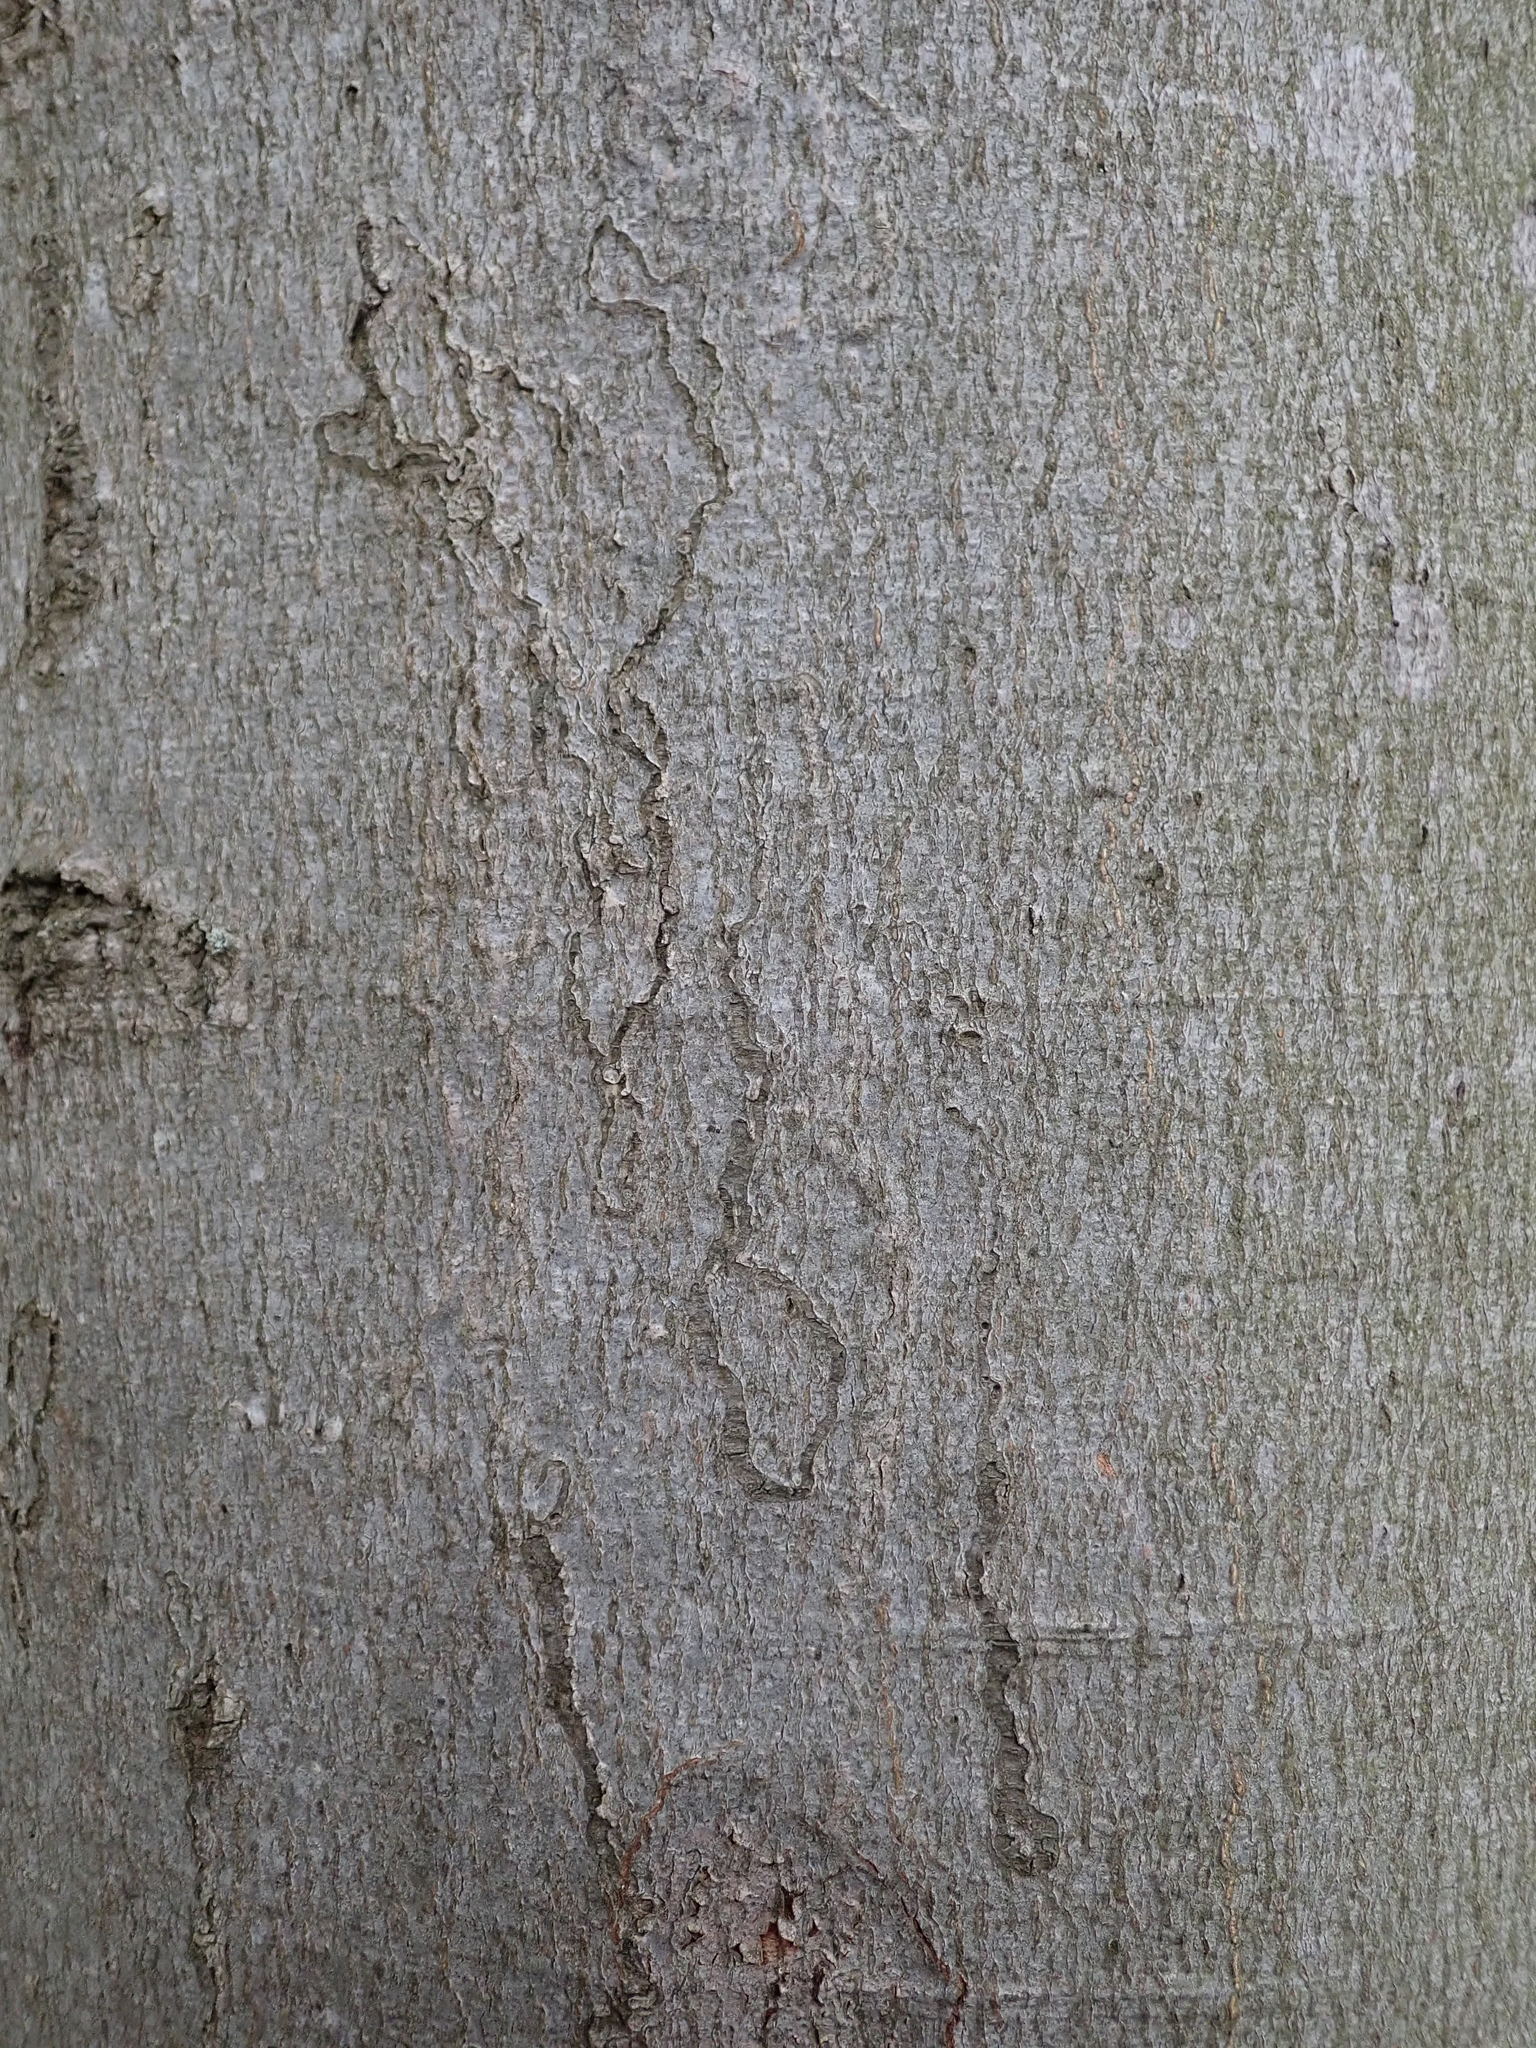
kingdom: Animalia
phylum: Arthropoda
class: Insecta
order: Lepidoptera
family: Nepticulidae
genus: Zimmermannia
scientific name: Zimmermannia liebwerdella
